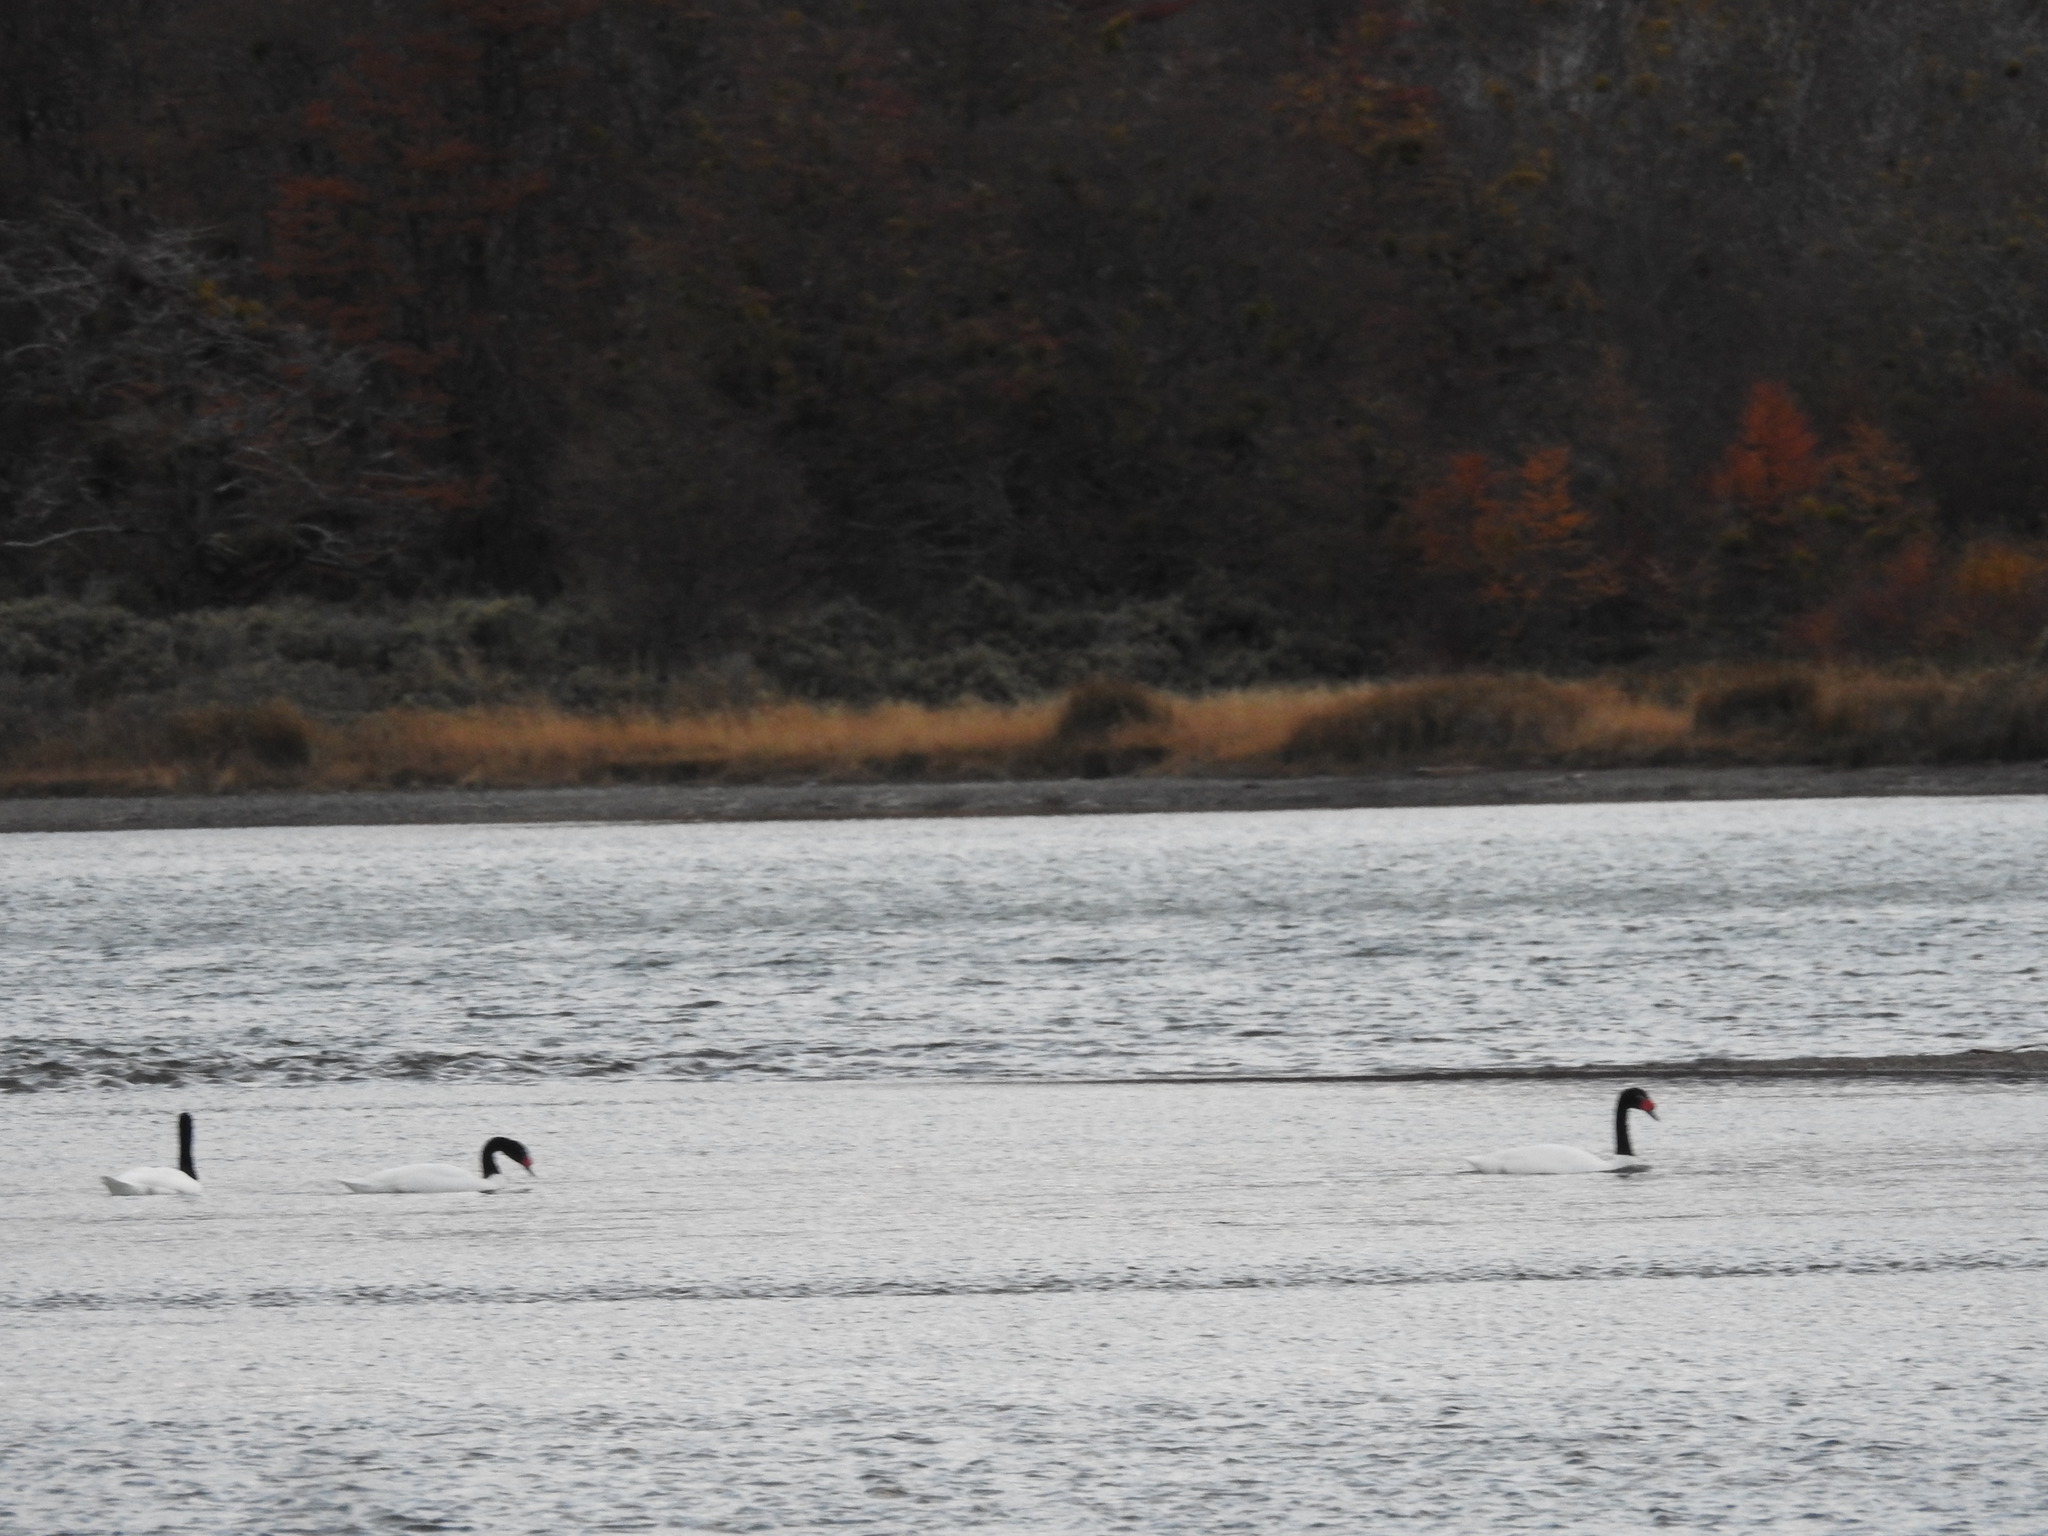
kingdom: Animalia
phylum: Chordata
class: Aves
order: Anseriformes
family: Anatidae
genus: Cygnus
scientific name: Cygnus melancoryphus
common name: Black-necked swan
